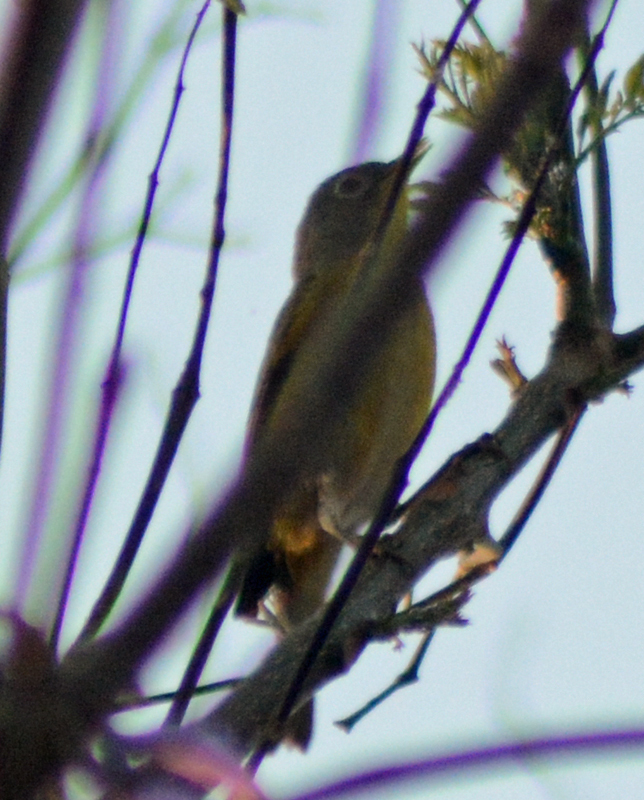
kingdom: Animalia
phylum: Chordata
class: Aves
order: Passeriformes
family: Parulidae
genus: Leiothlypis
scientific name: Leiothlypis ruficapilla
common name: Nashville warbler
